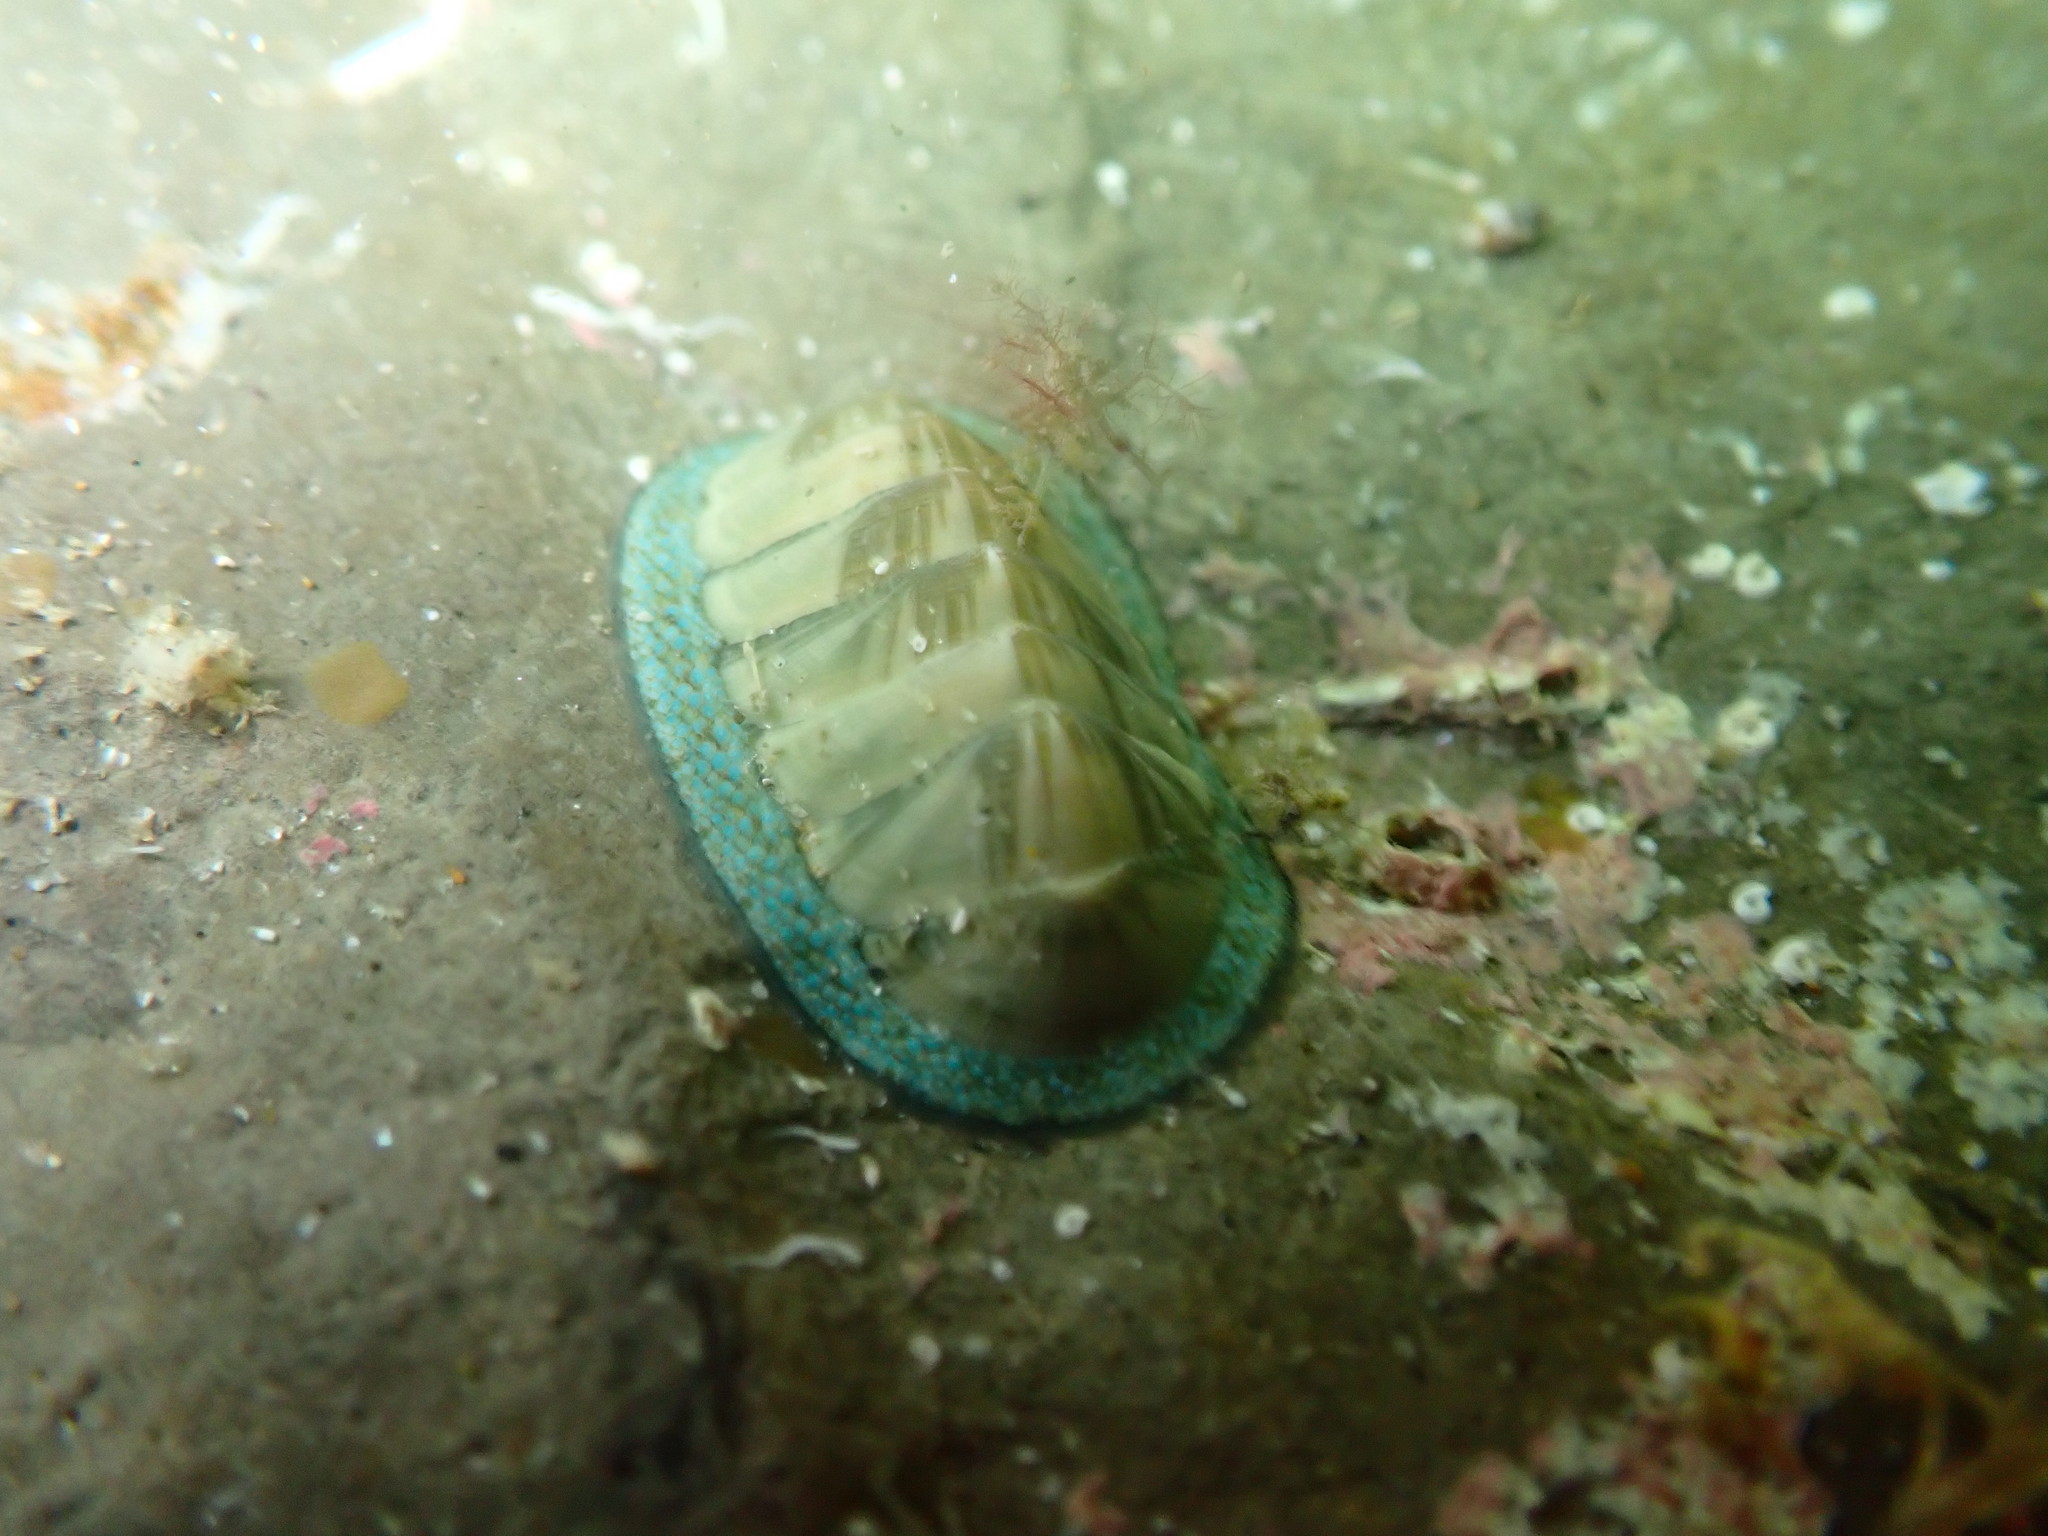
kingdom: Animalia
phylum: Mollusca
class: Polyplacophora
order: Chitonida
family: Chitonidae
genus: Chiton
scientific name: Chiton glaucus
